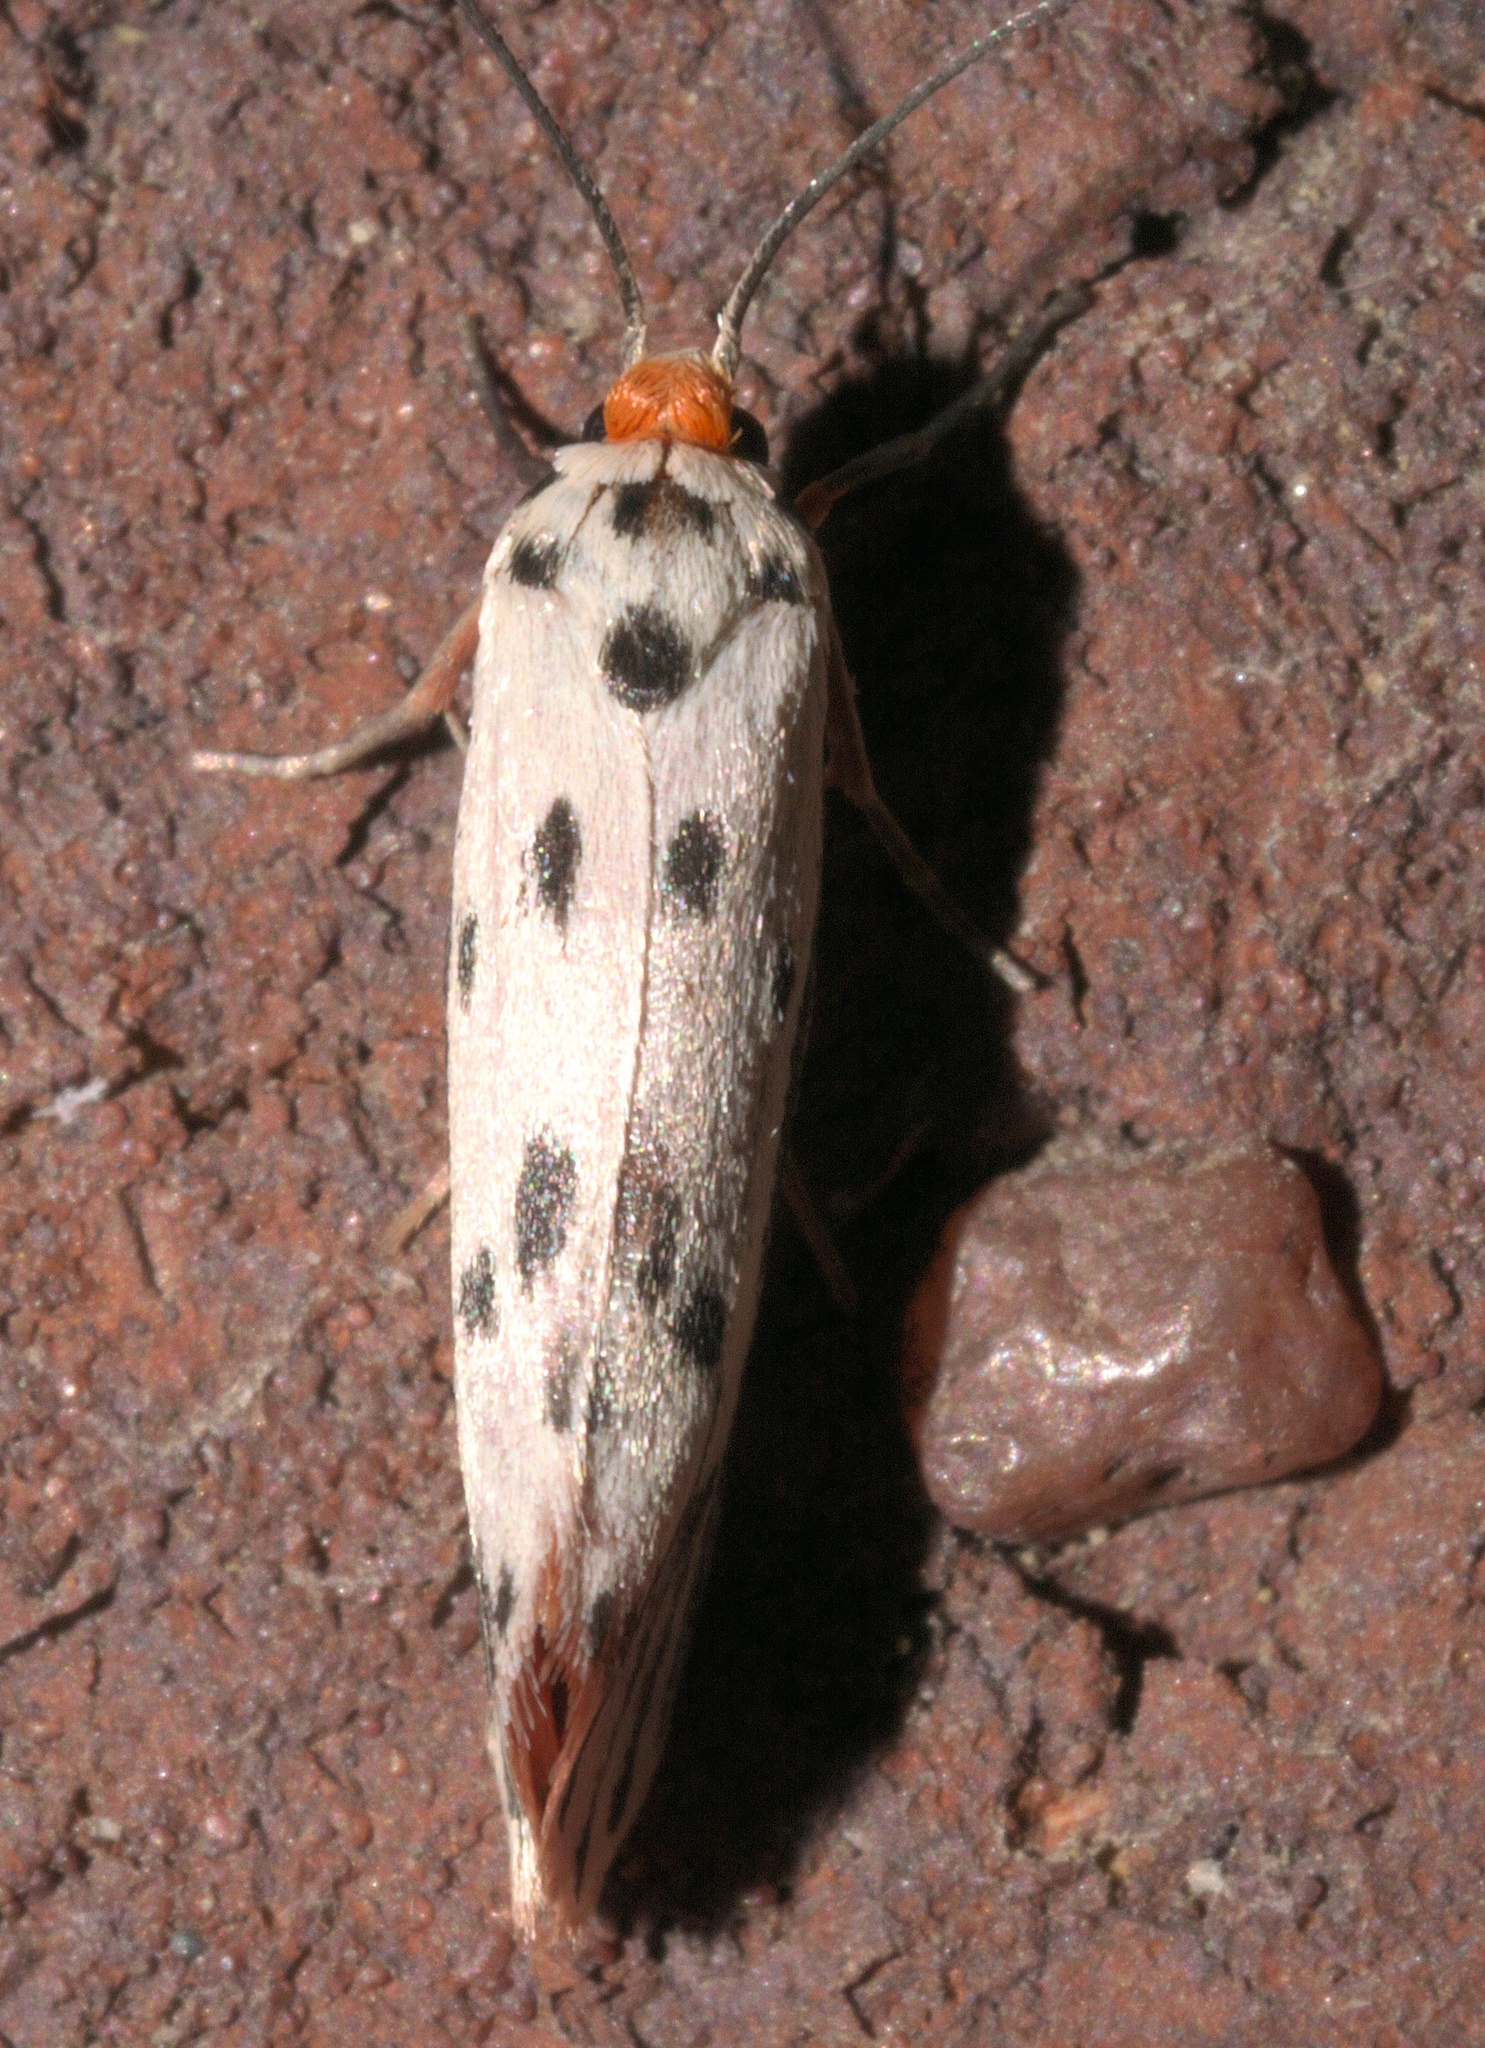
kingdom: Animalia
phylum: Arthropoda
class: Insecta
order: Lepidoptera
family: Lacturidae
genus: Lactura
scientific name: Lactura
